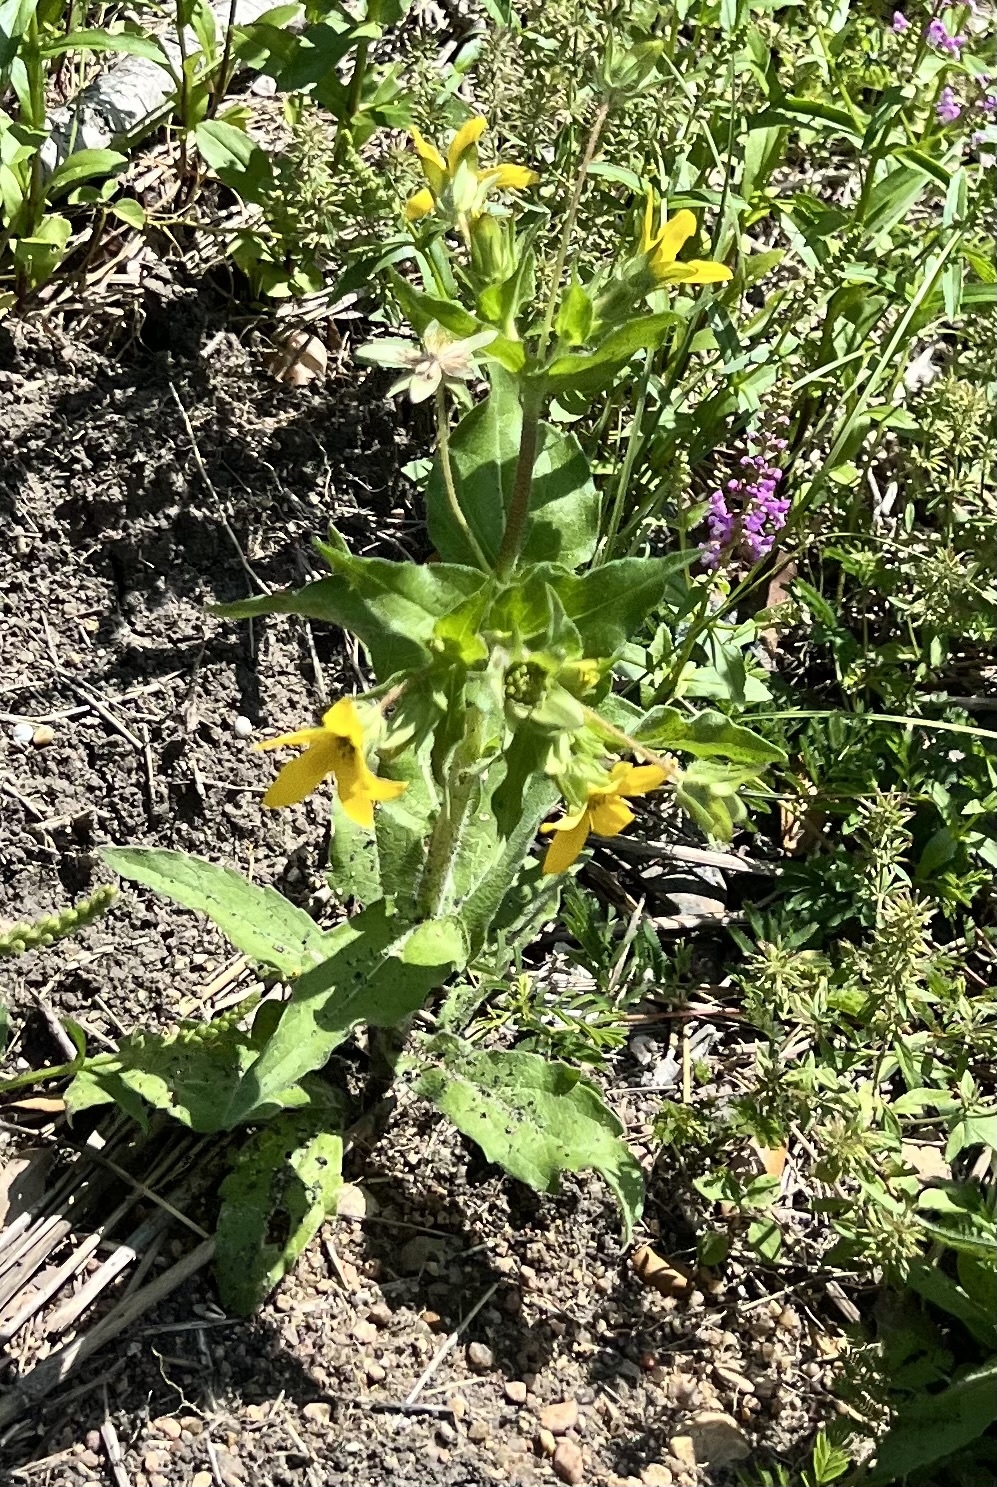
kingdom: Plantae
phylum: Tracheophyta
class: Magnoliopsida
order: Asterales
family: Asteraceae
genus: Lindheimera
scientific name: Lindheimera texana
